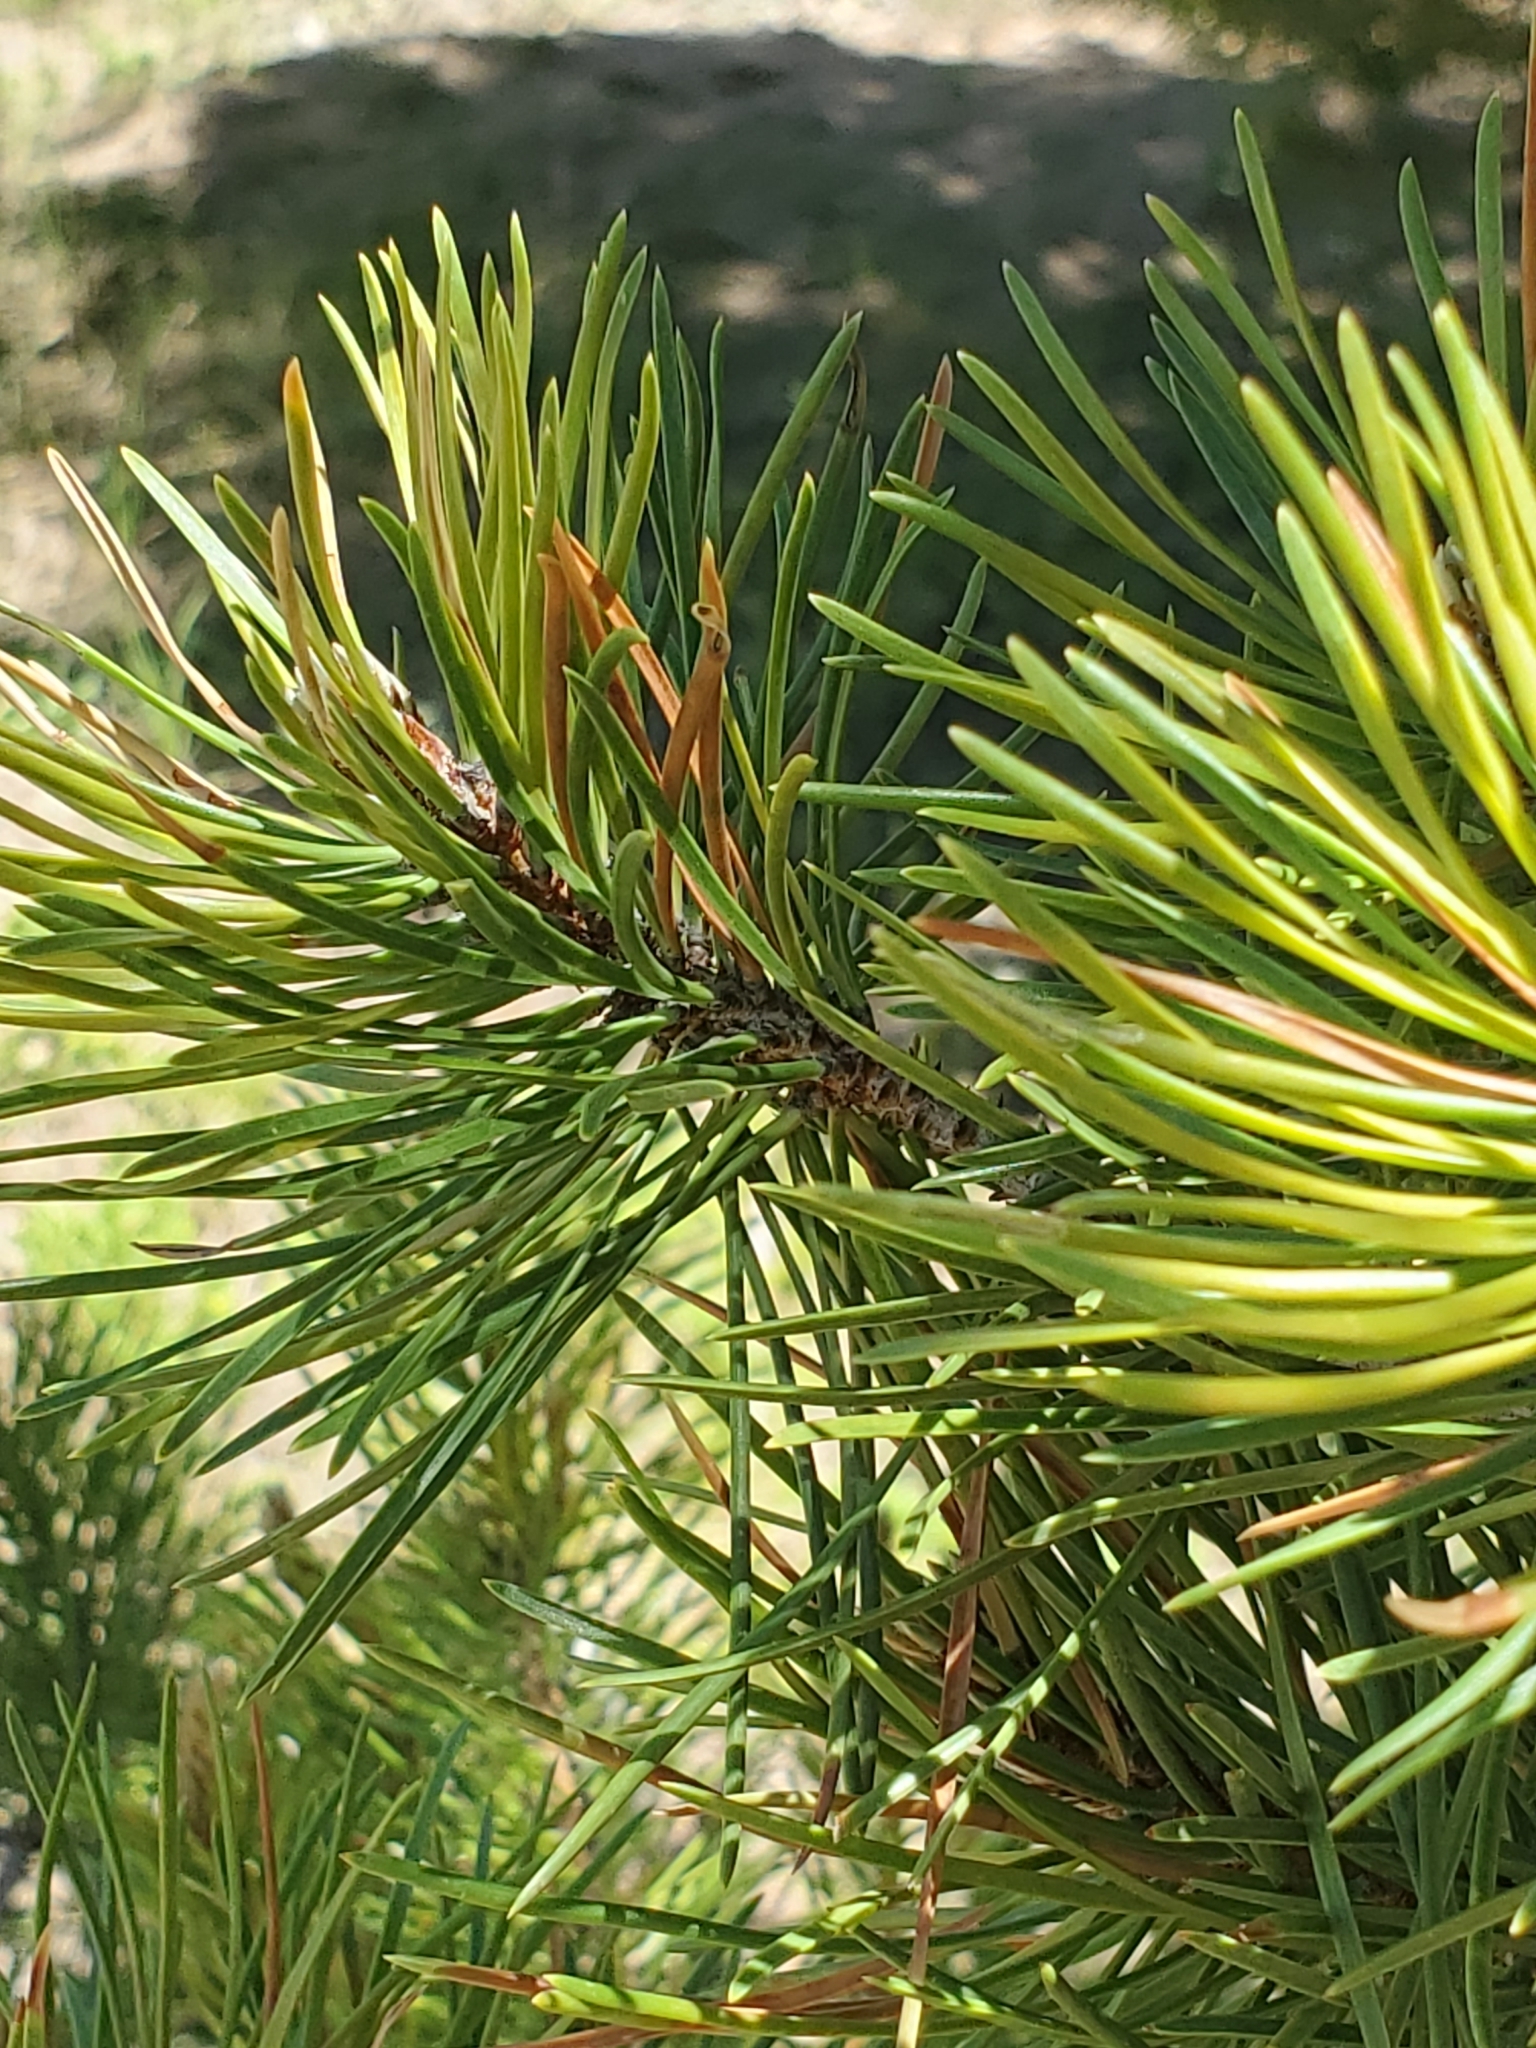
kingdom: Plantae
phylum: Tracheophyta
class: Pinopsida
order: Pinales
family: Pinaceae
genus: Pinus
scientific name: Pinus contorta
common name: Lodgepole pine
